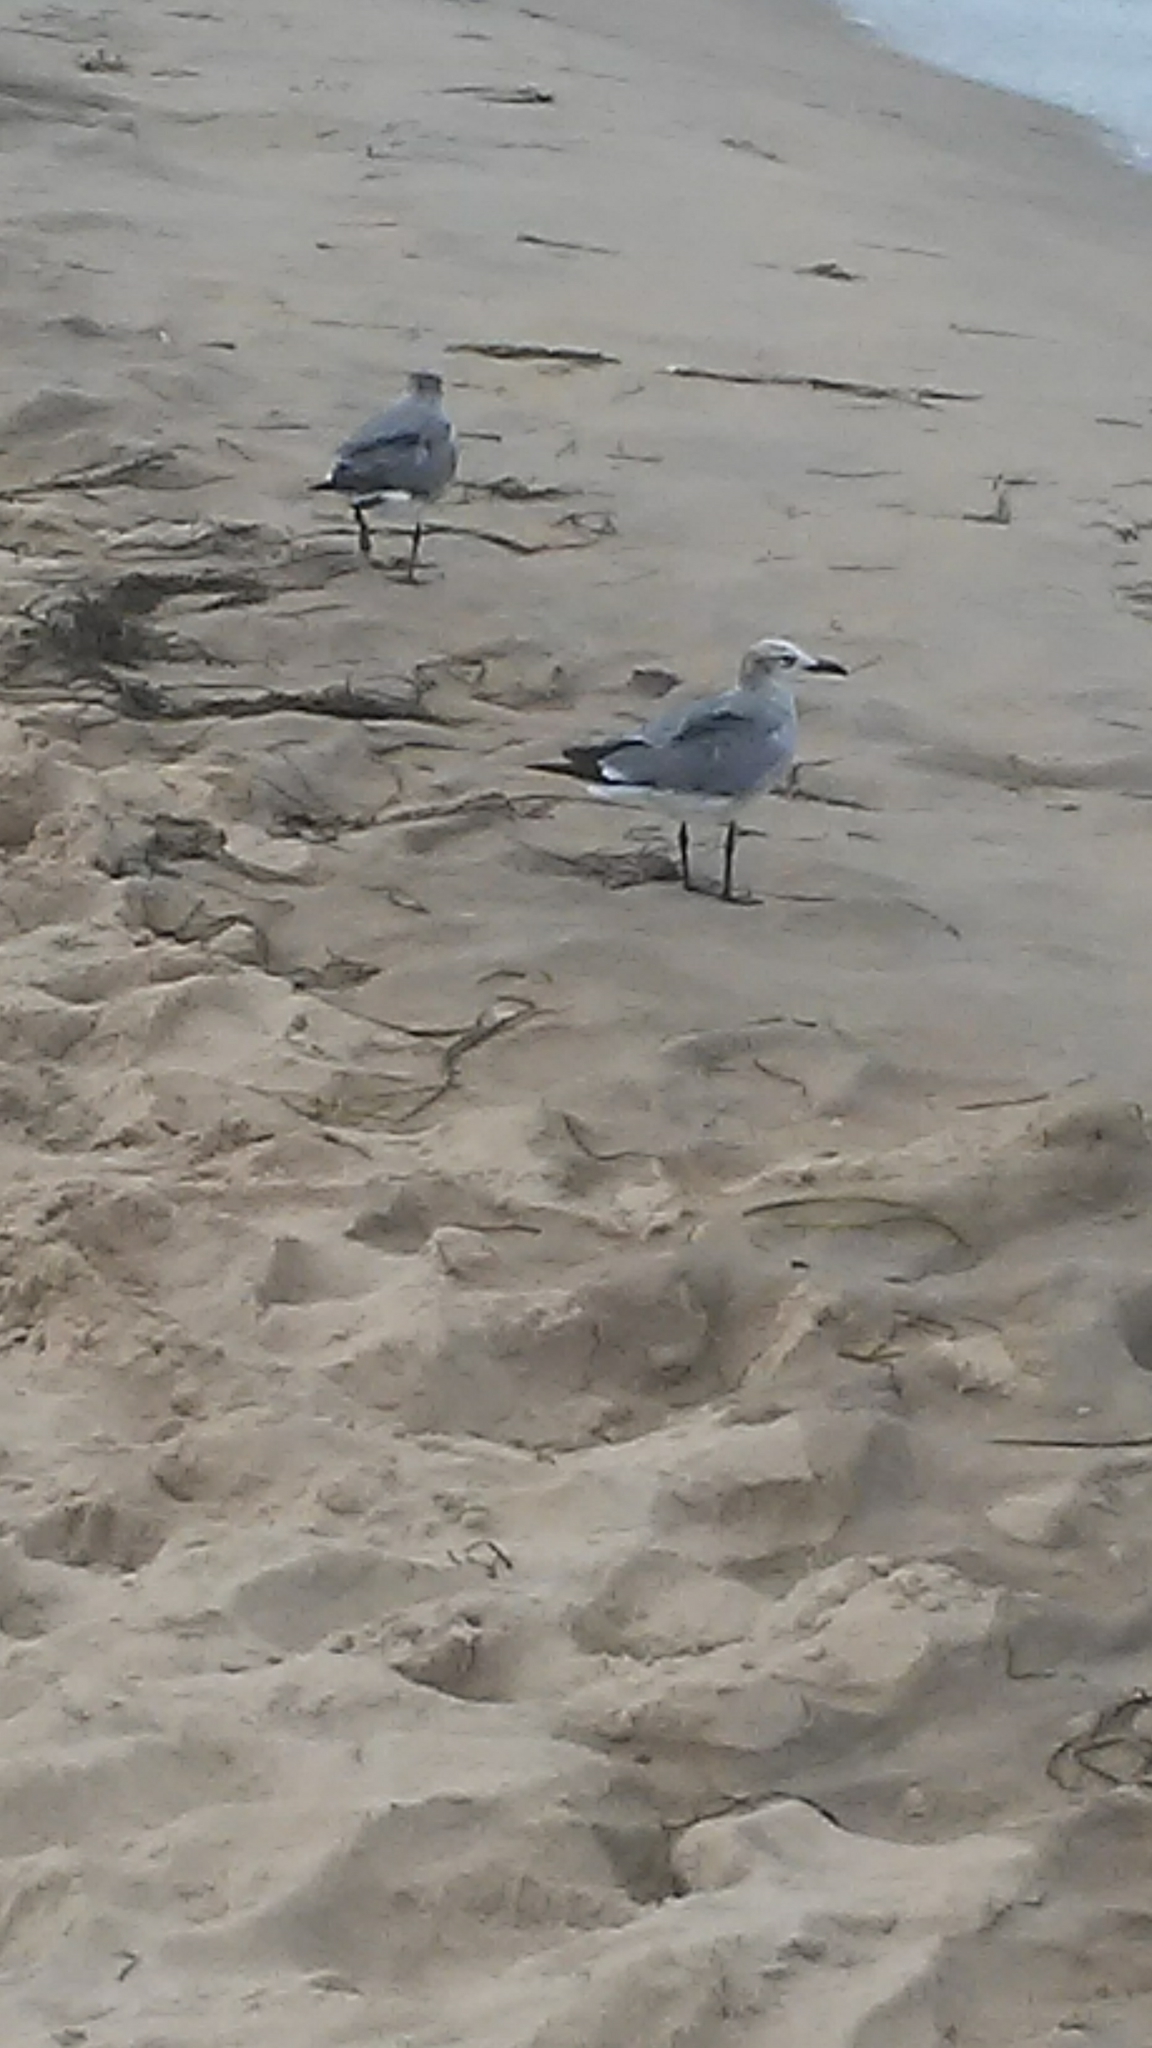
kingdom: Animalia
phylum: Chordata
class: Aves
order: Charadriiformes
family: Laridae
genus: Leucophaeus
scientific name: Leucophaeus atricilla
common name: Laughing gull
